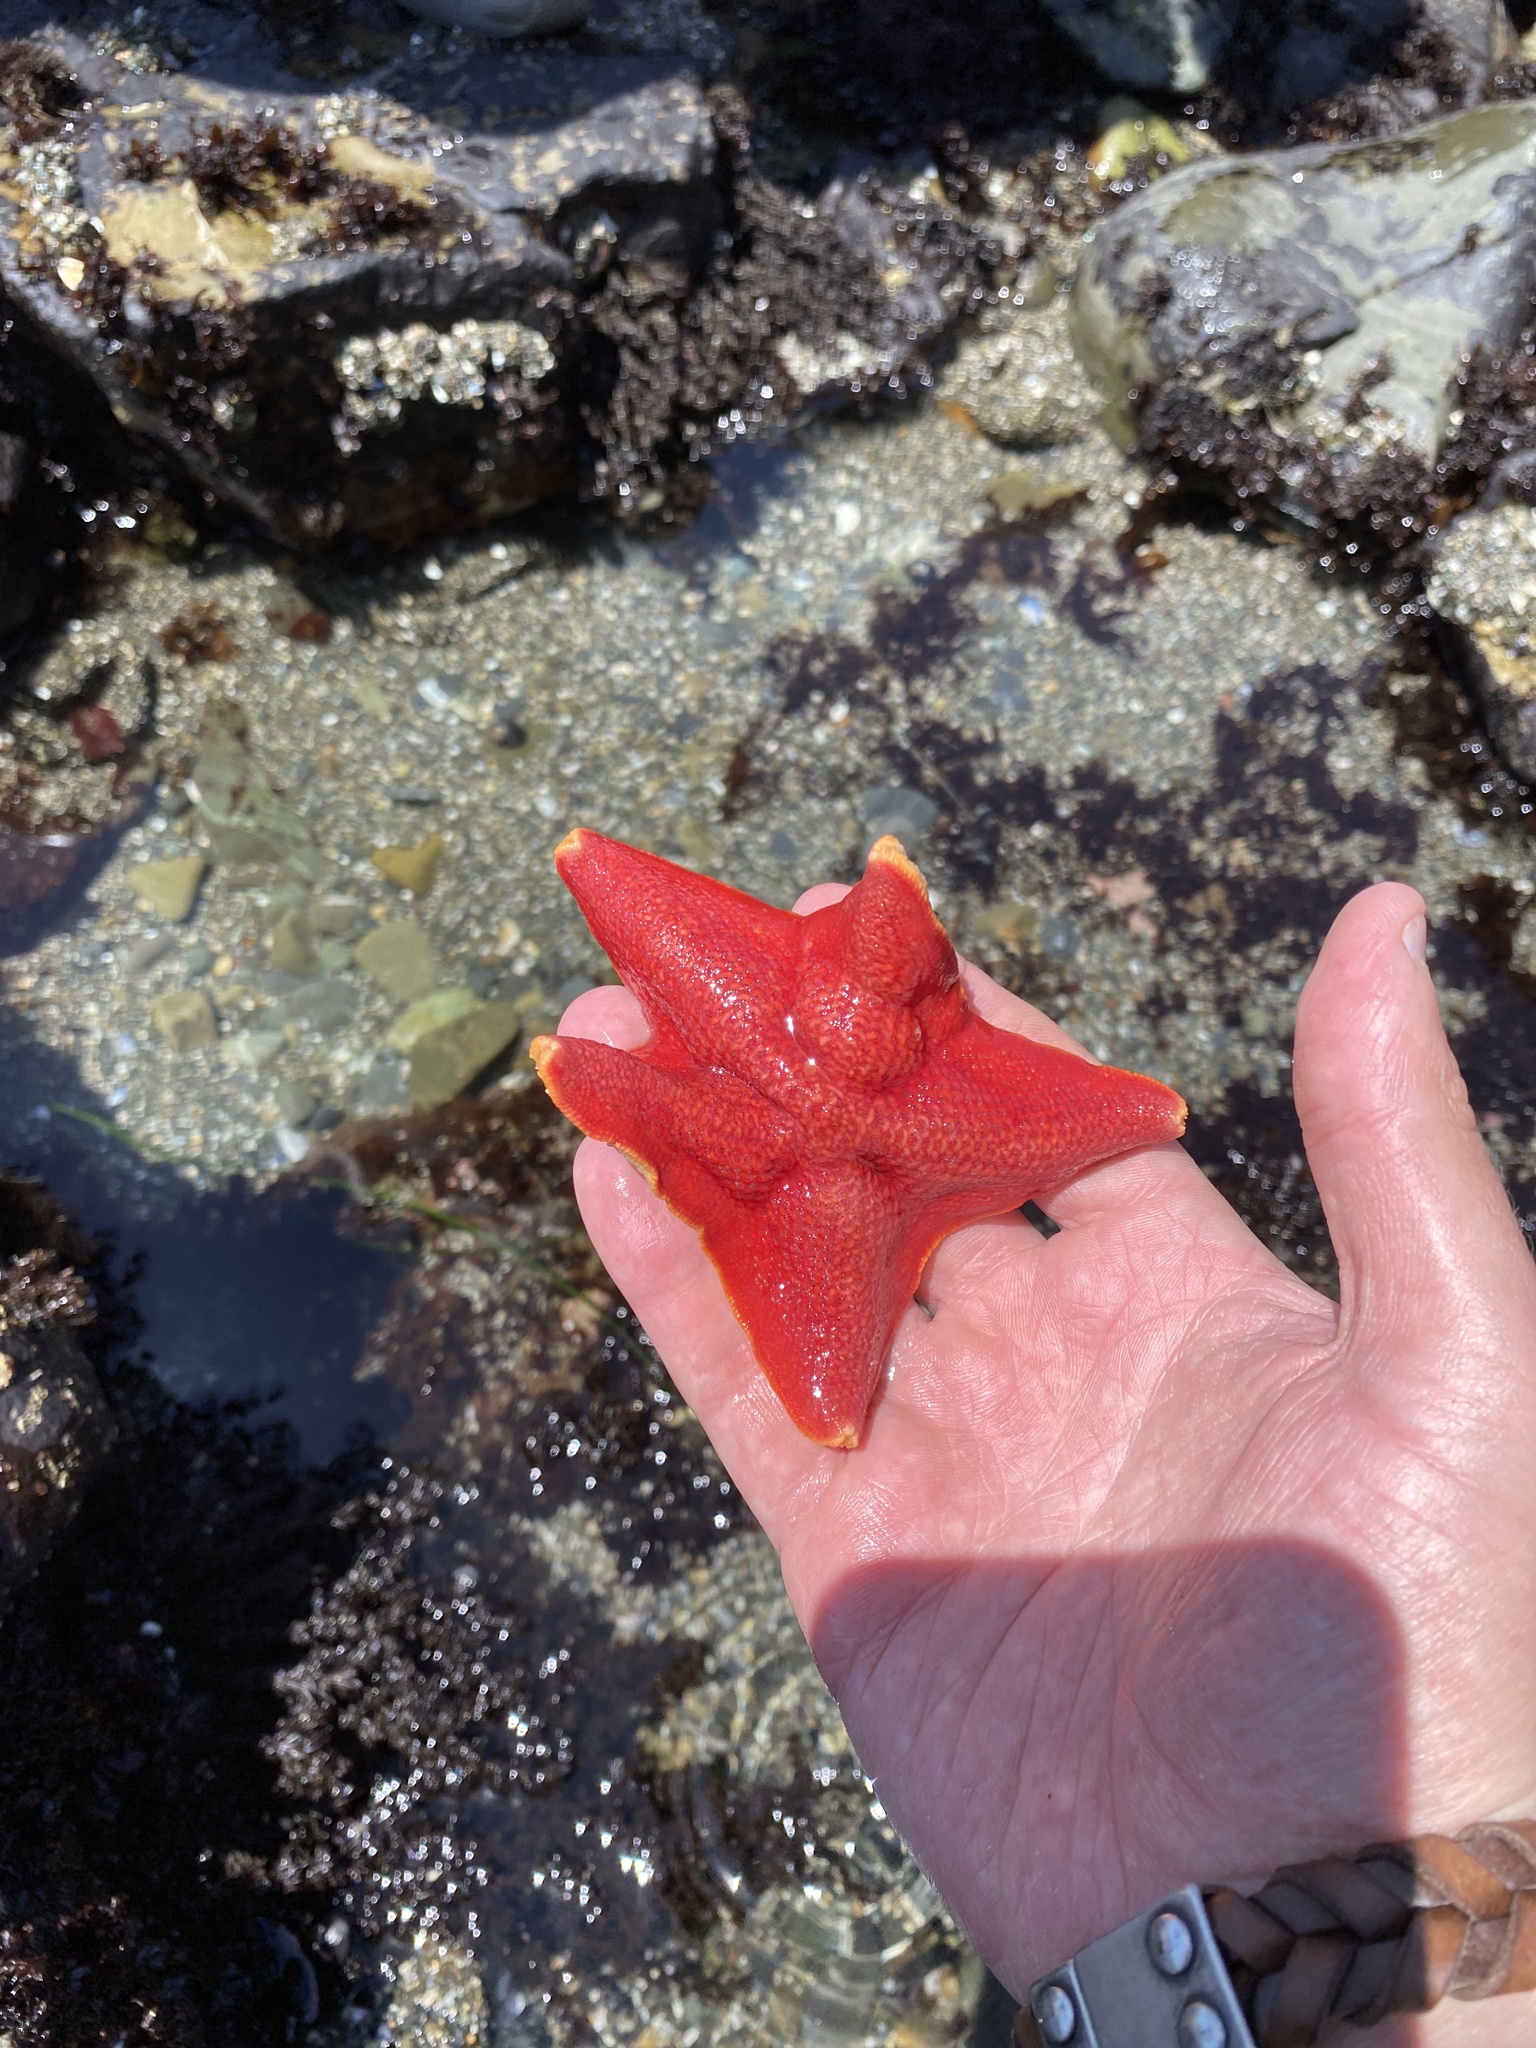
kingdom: Animalia
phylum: Echinodermata
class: Asteroidea
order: Valvatida
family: Asterinidae
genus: Patiria
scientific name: Patiria miniata
